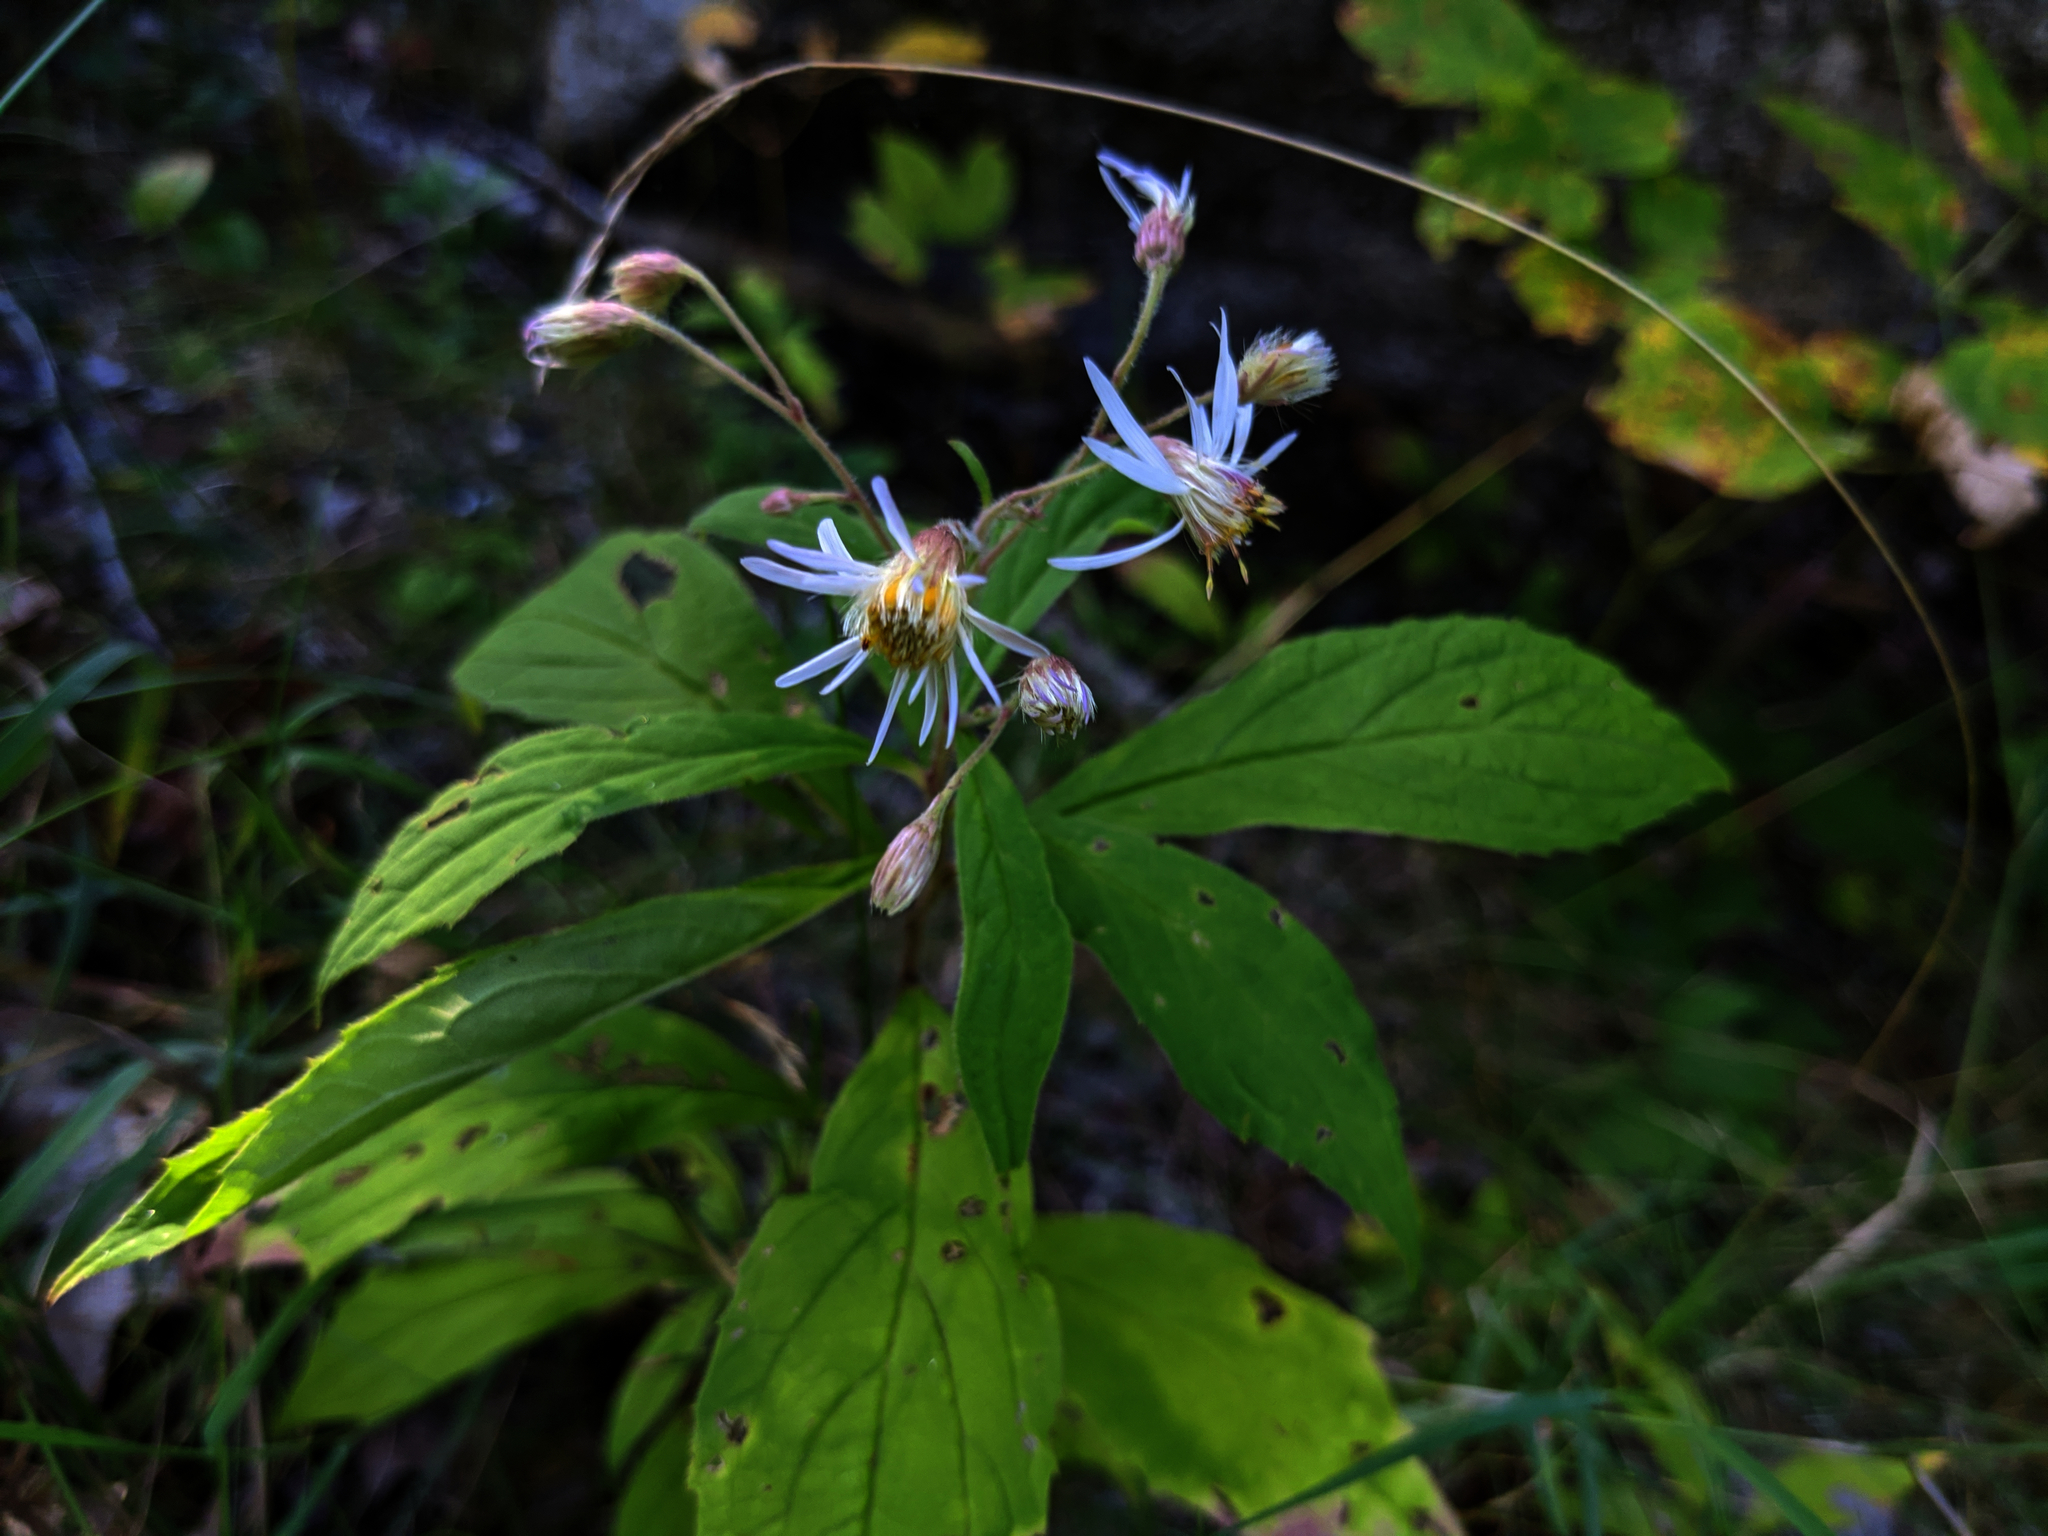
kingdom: Plantae
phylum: Tracheophyta
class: Magnoliopsida
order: Asterales
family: Asteraceae
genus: Oclemena
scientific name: Oclemena acuminata
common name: Mountain aster
